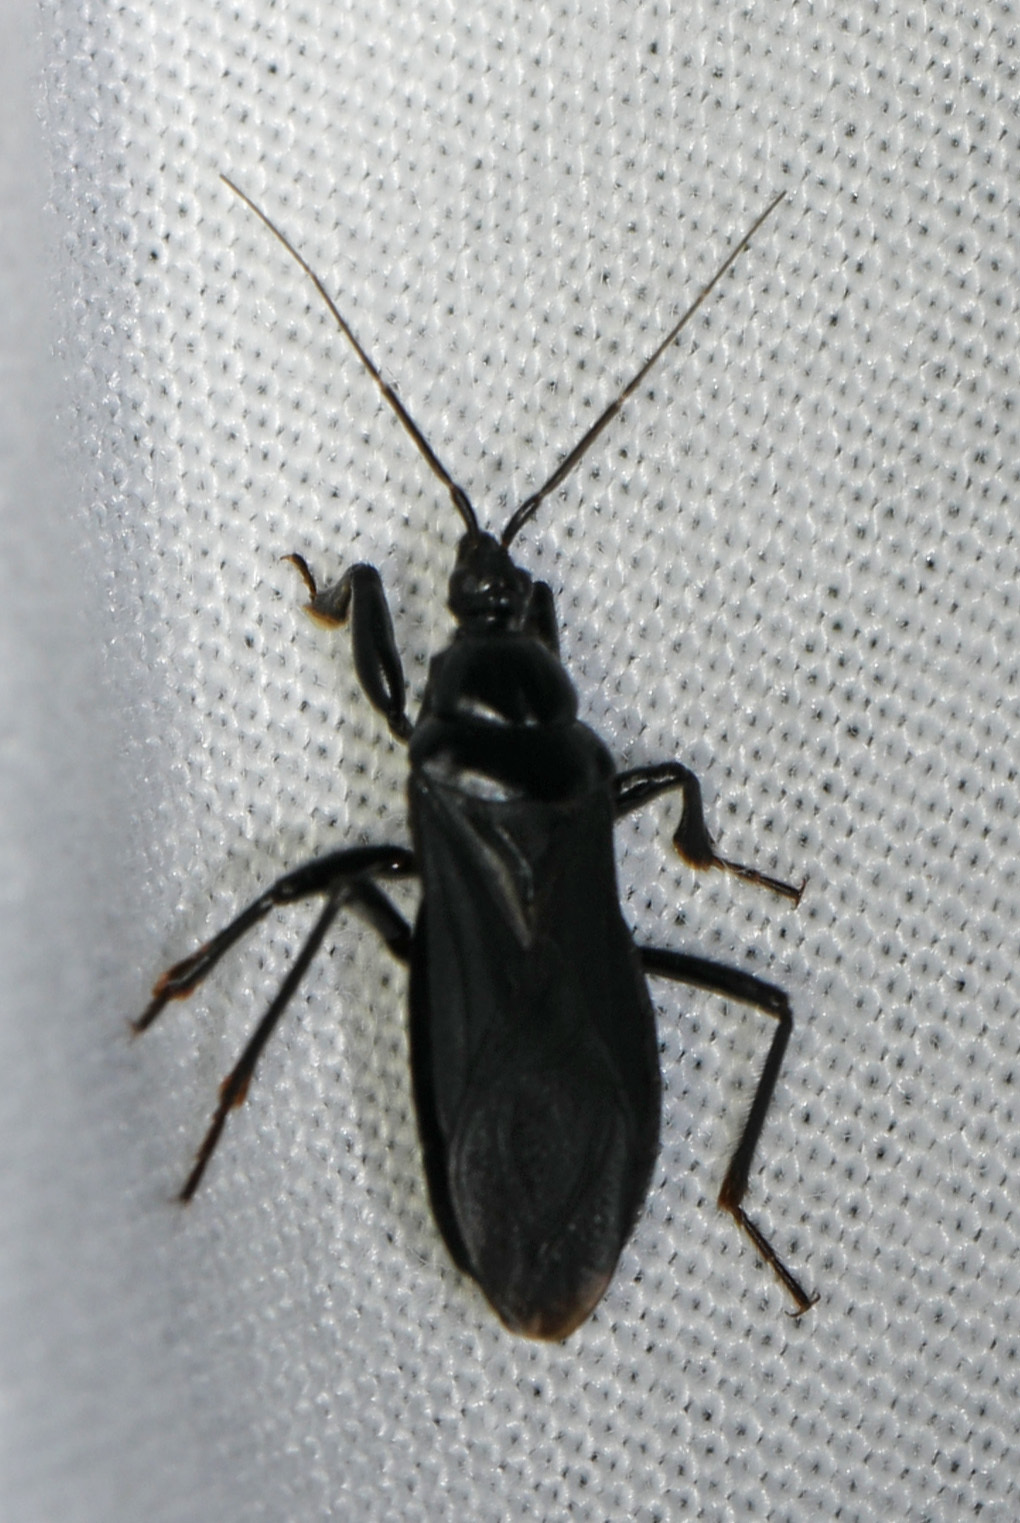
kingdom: Animalia
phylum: Arthropoda
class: Insecta
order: Hemiptera
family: Reduviidae
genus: Melanolestes
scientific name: Melanolestes picipes
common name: Assassin bug
